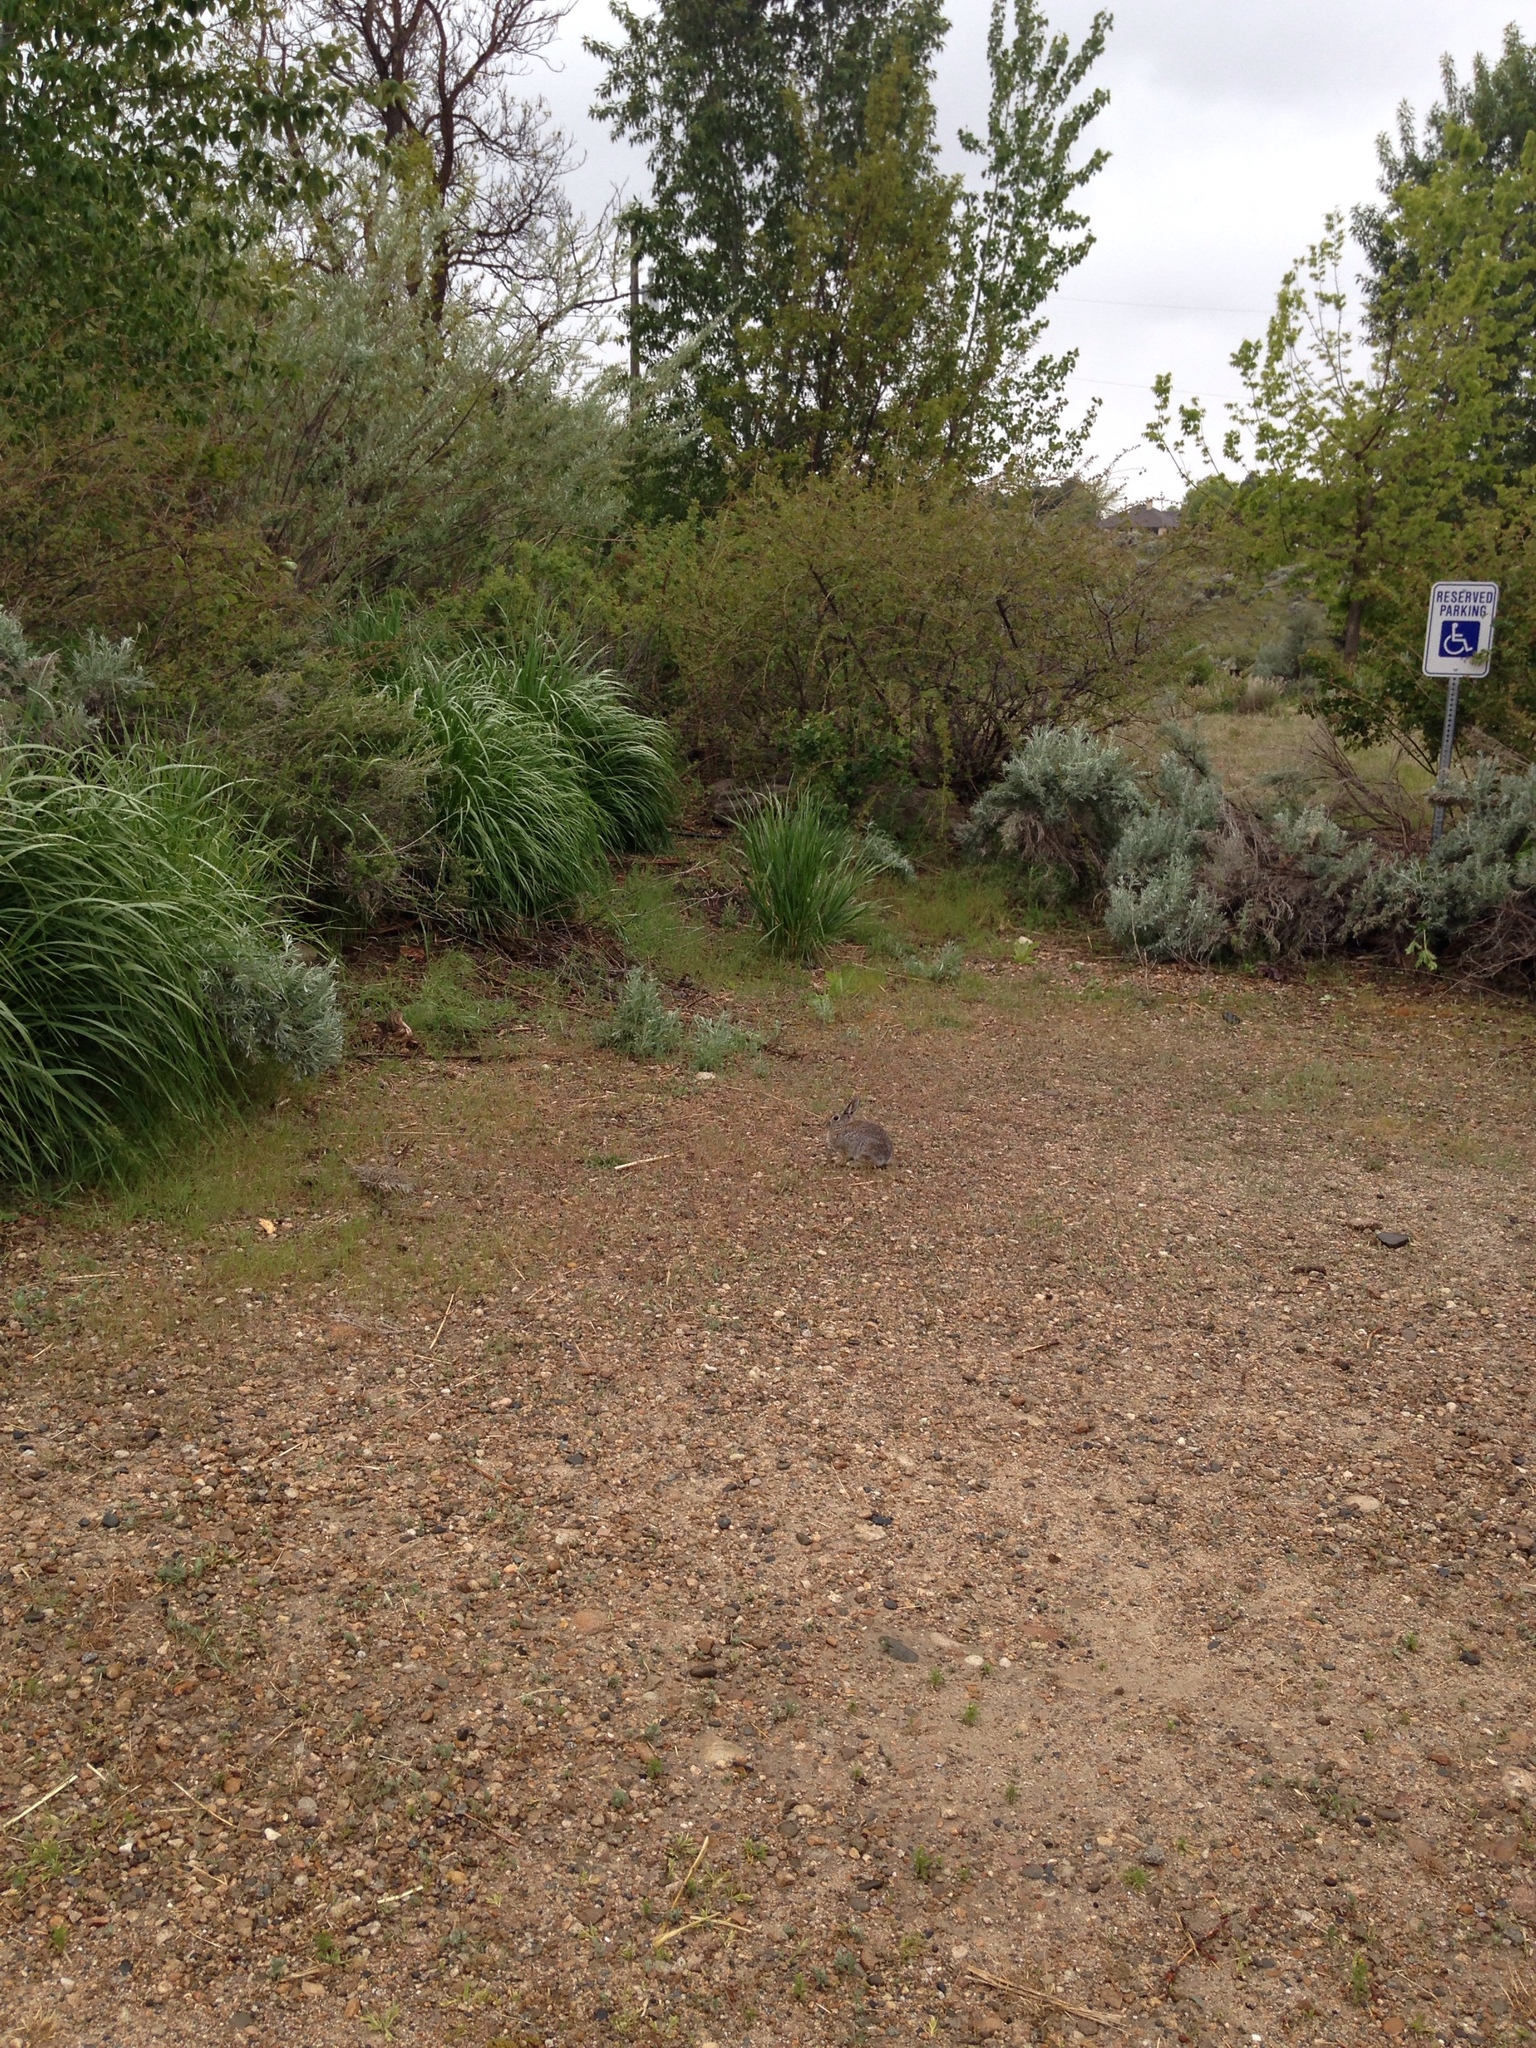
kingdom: Animalia
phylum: Chordata
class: Mammalia
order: Lagomorpha
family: Leporidae
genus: Sylvilagus
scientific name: Sylvilagus nuttallii
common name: Mountain cottontail
